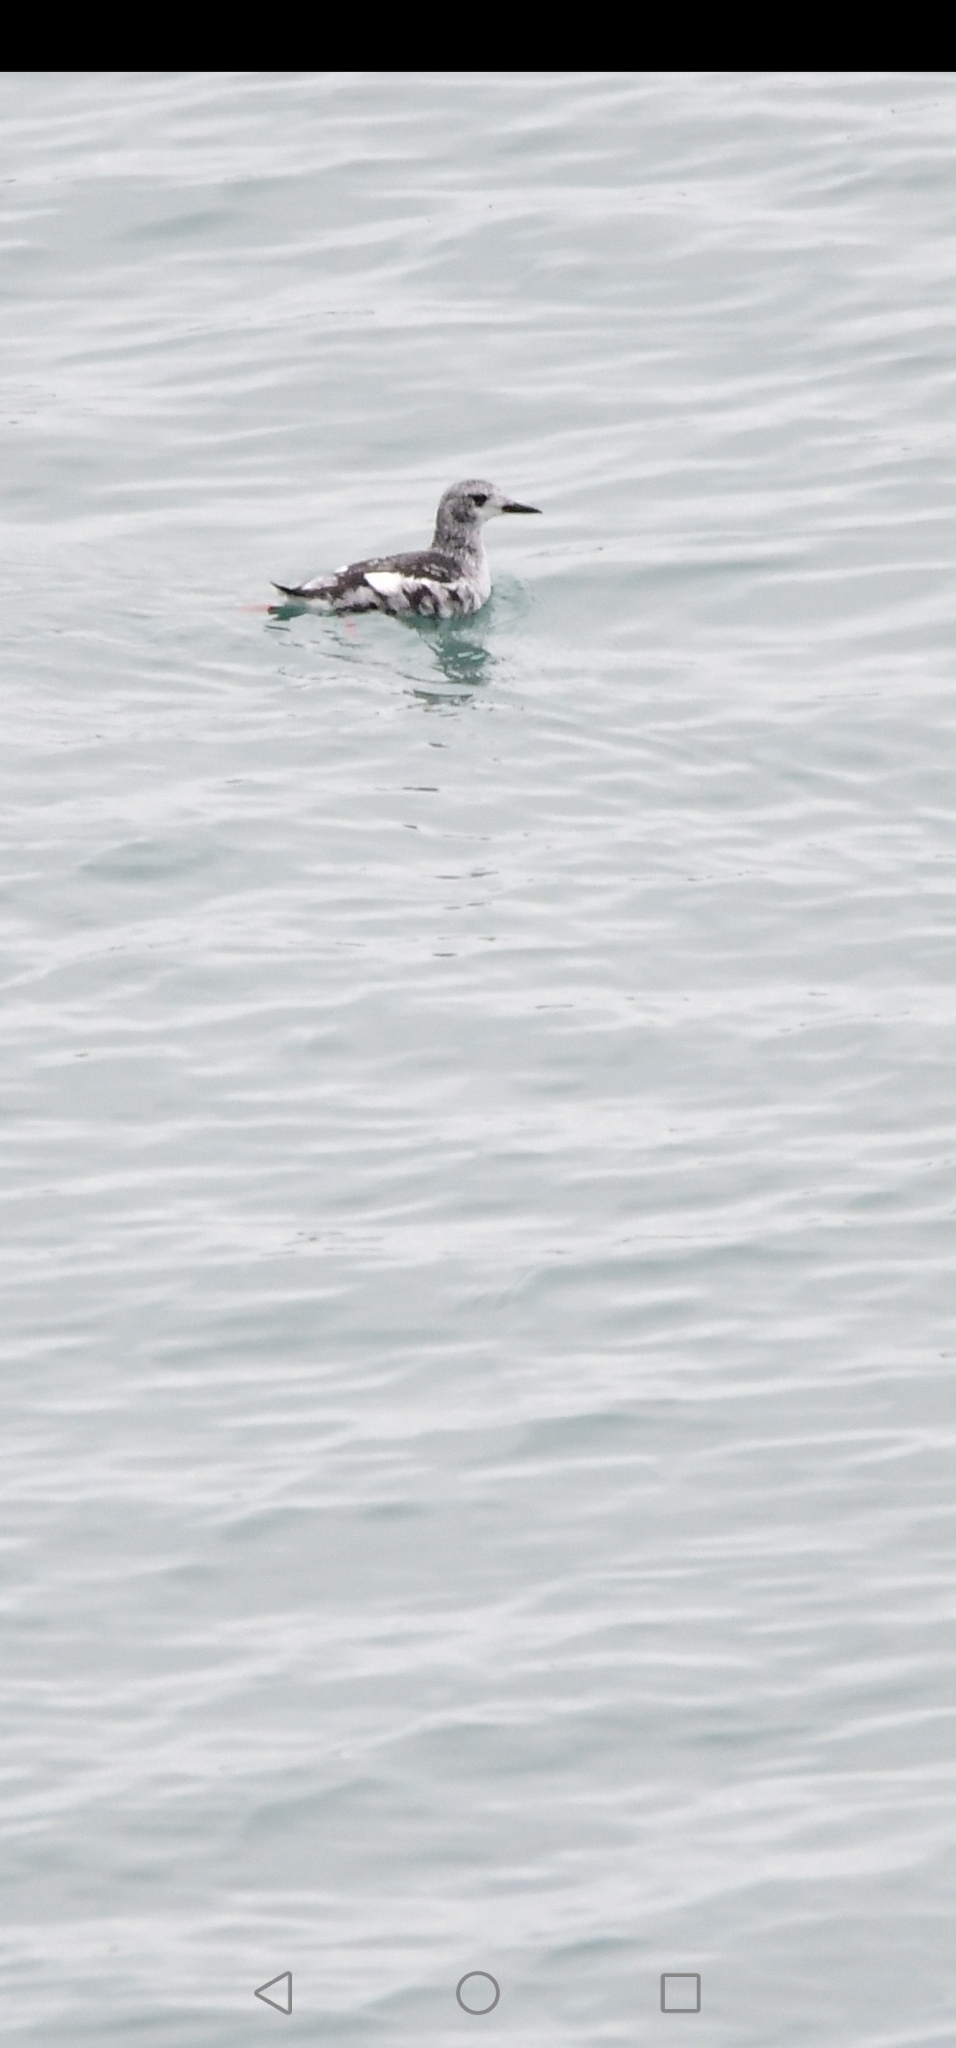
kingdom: Animalia
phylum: Chordata
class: Aves
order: Charadriiformes
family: Alcidae
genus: Cepphus
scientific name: Cepphus grylle
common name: Black guillemot
